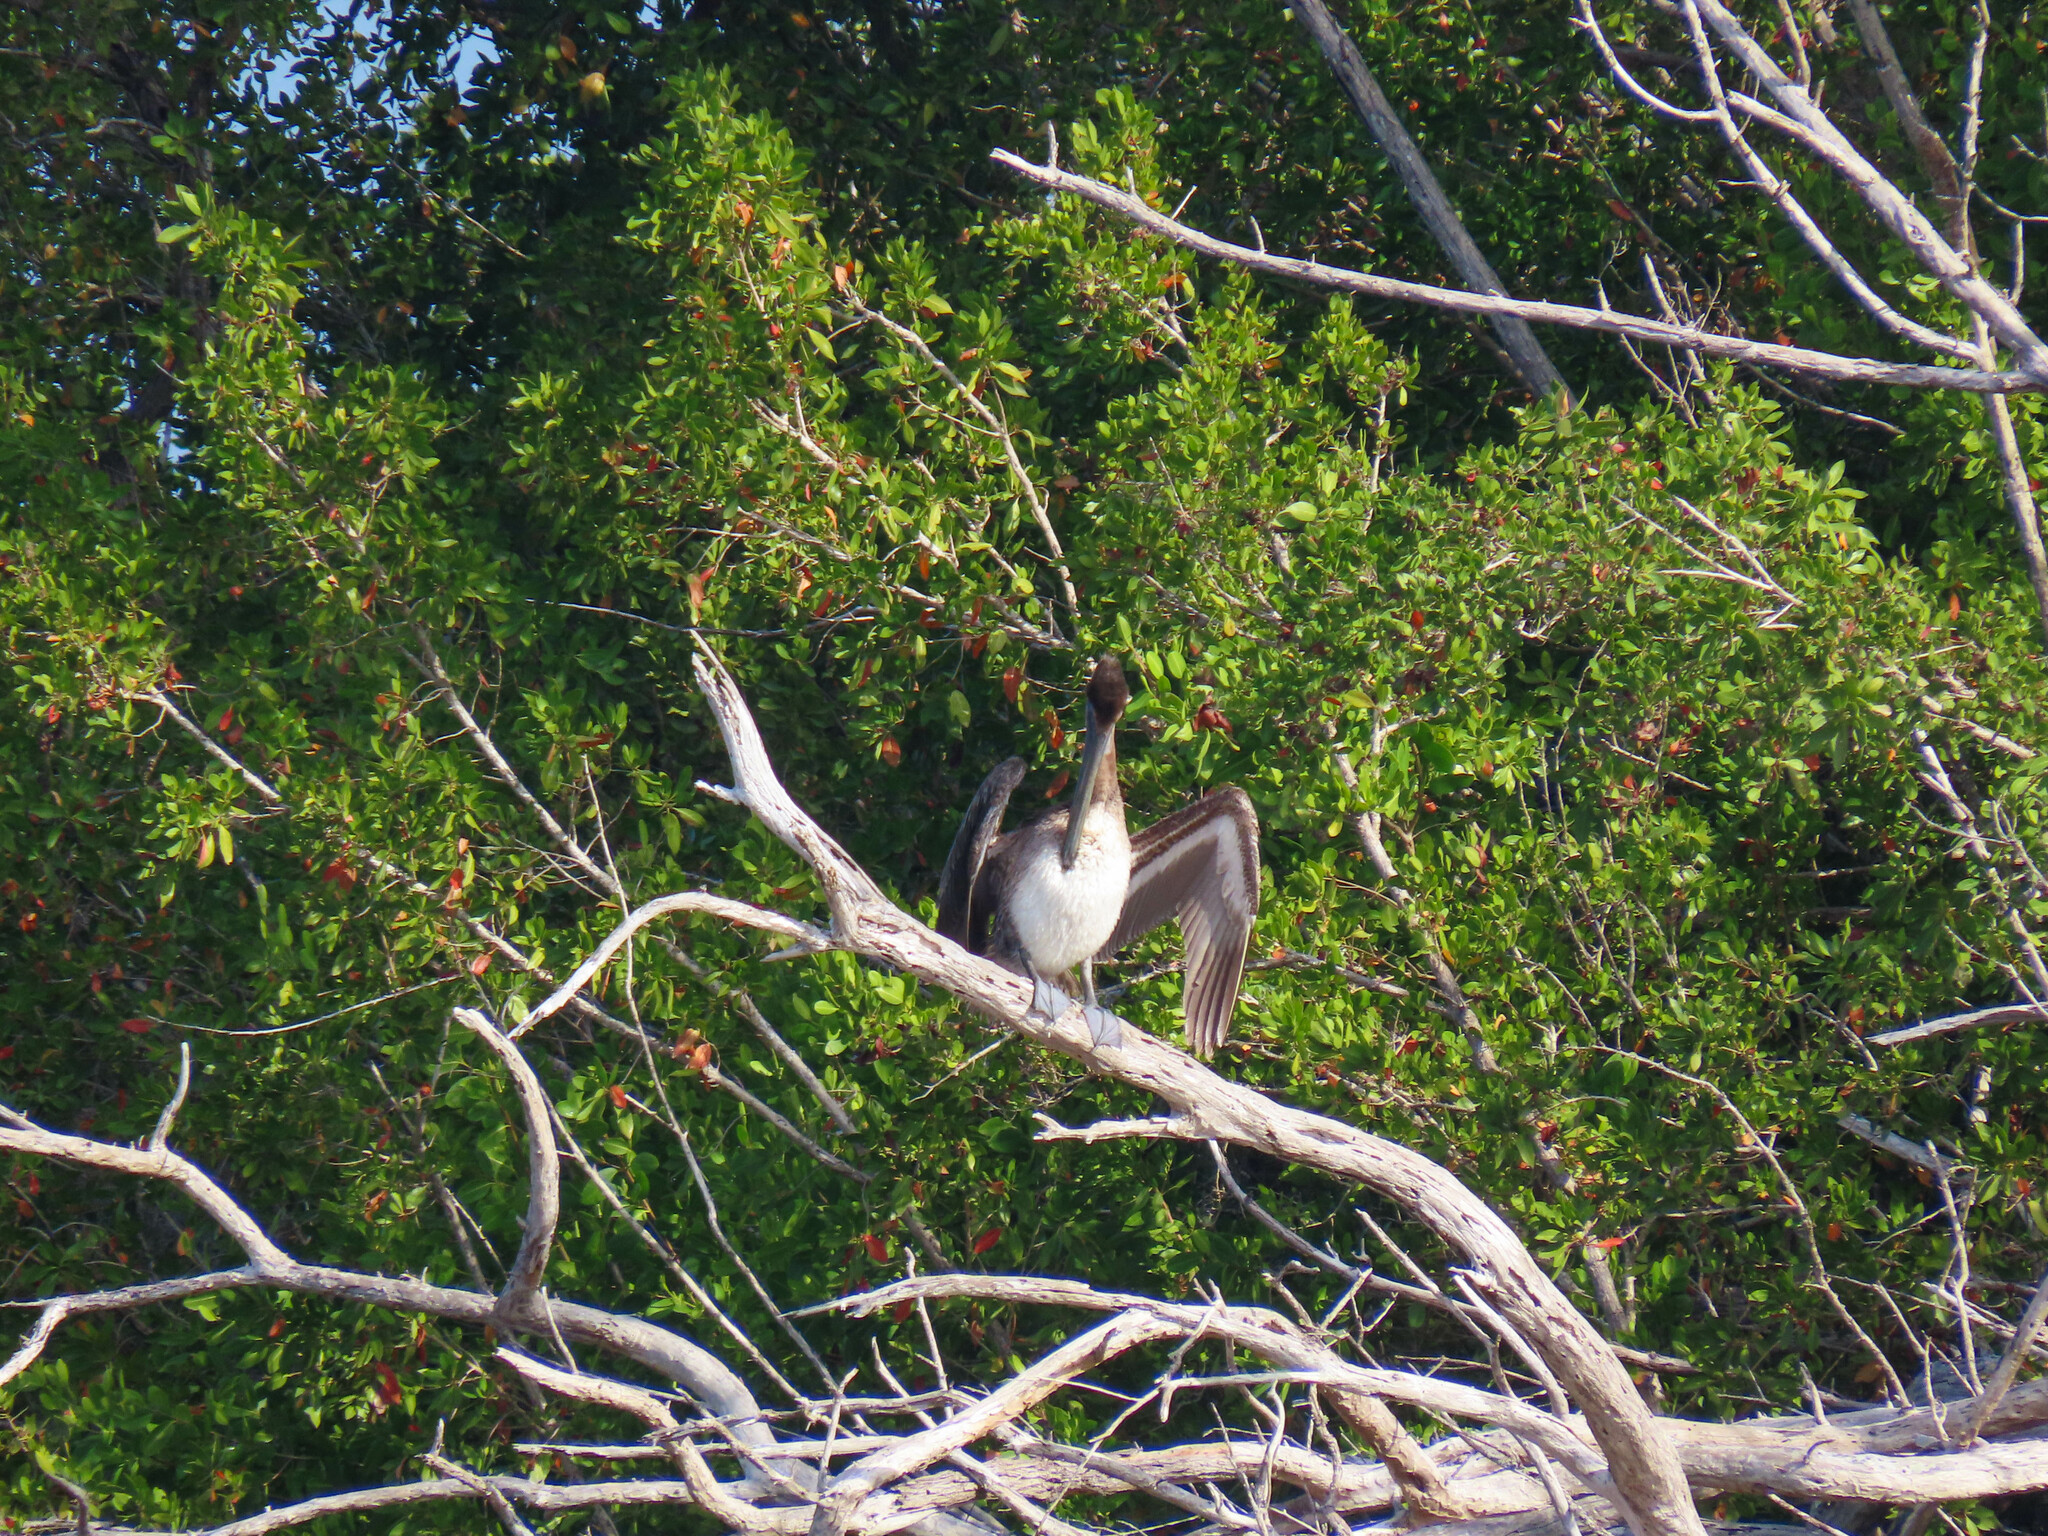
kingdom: Animalia
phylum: Chordata
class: Aves
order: Pelecaniformes
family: Pelecanidae
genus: Pelecanus
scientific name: Pelecanus occidentalis
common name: Brown pelican
